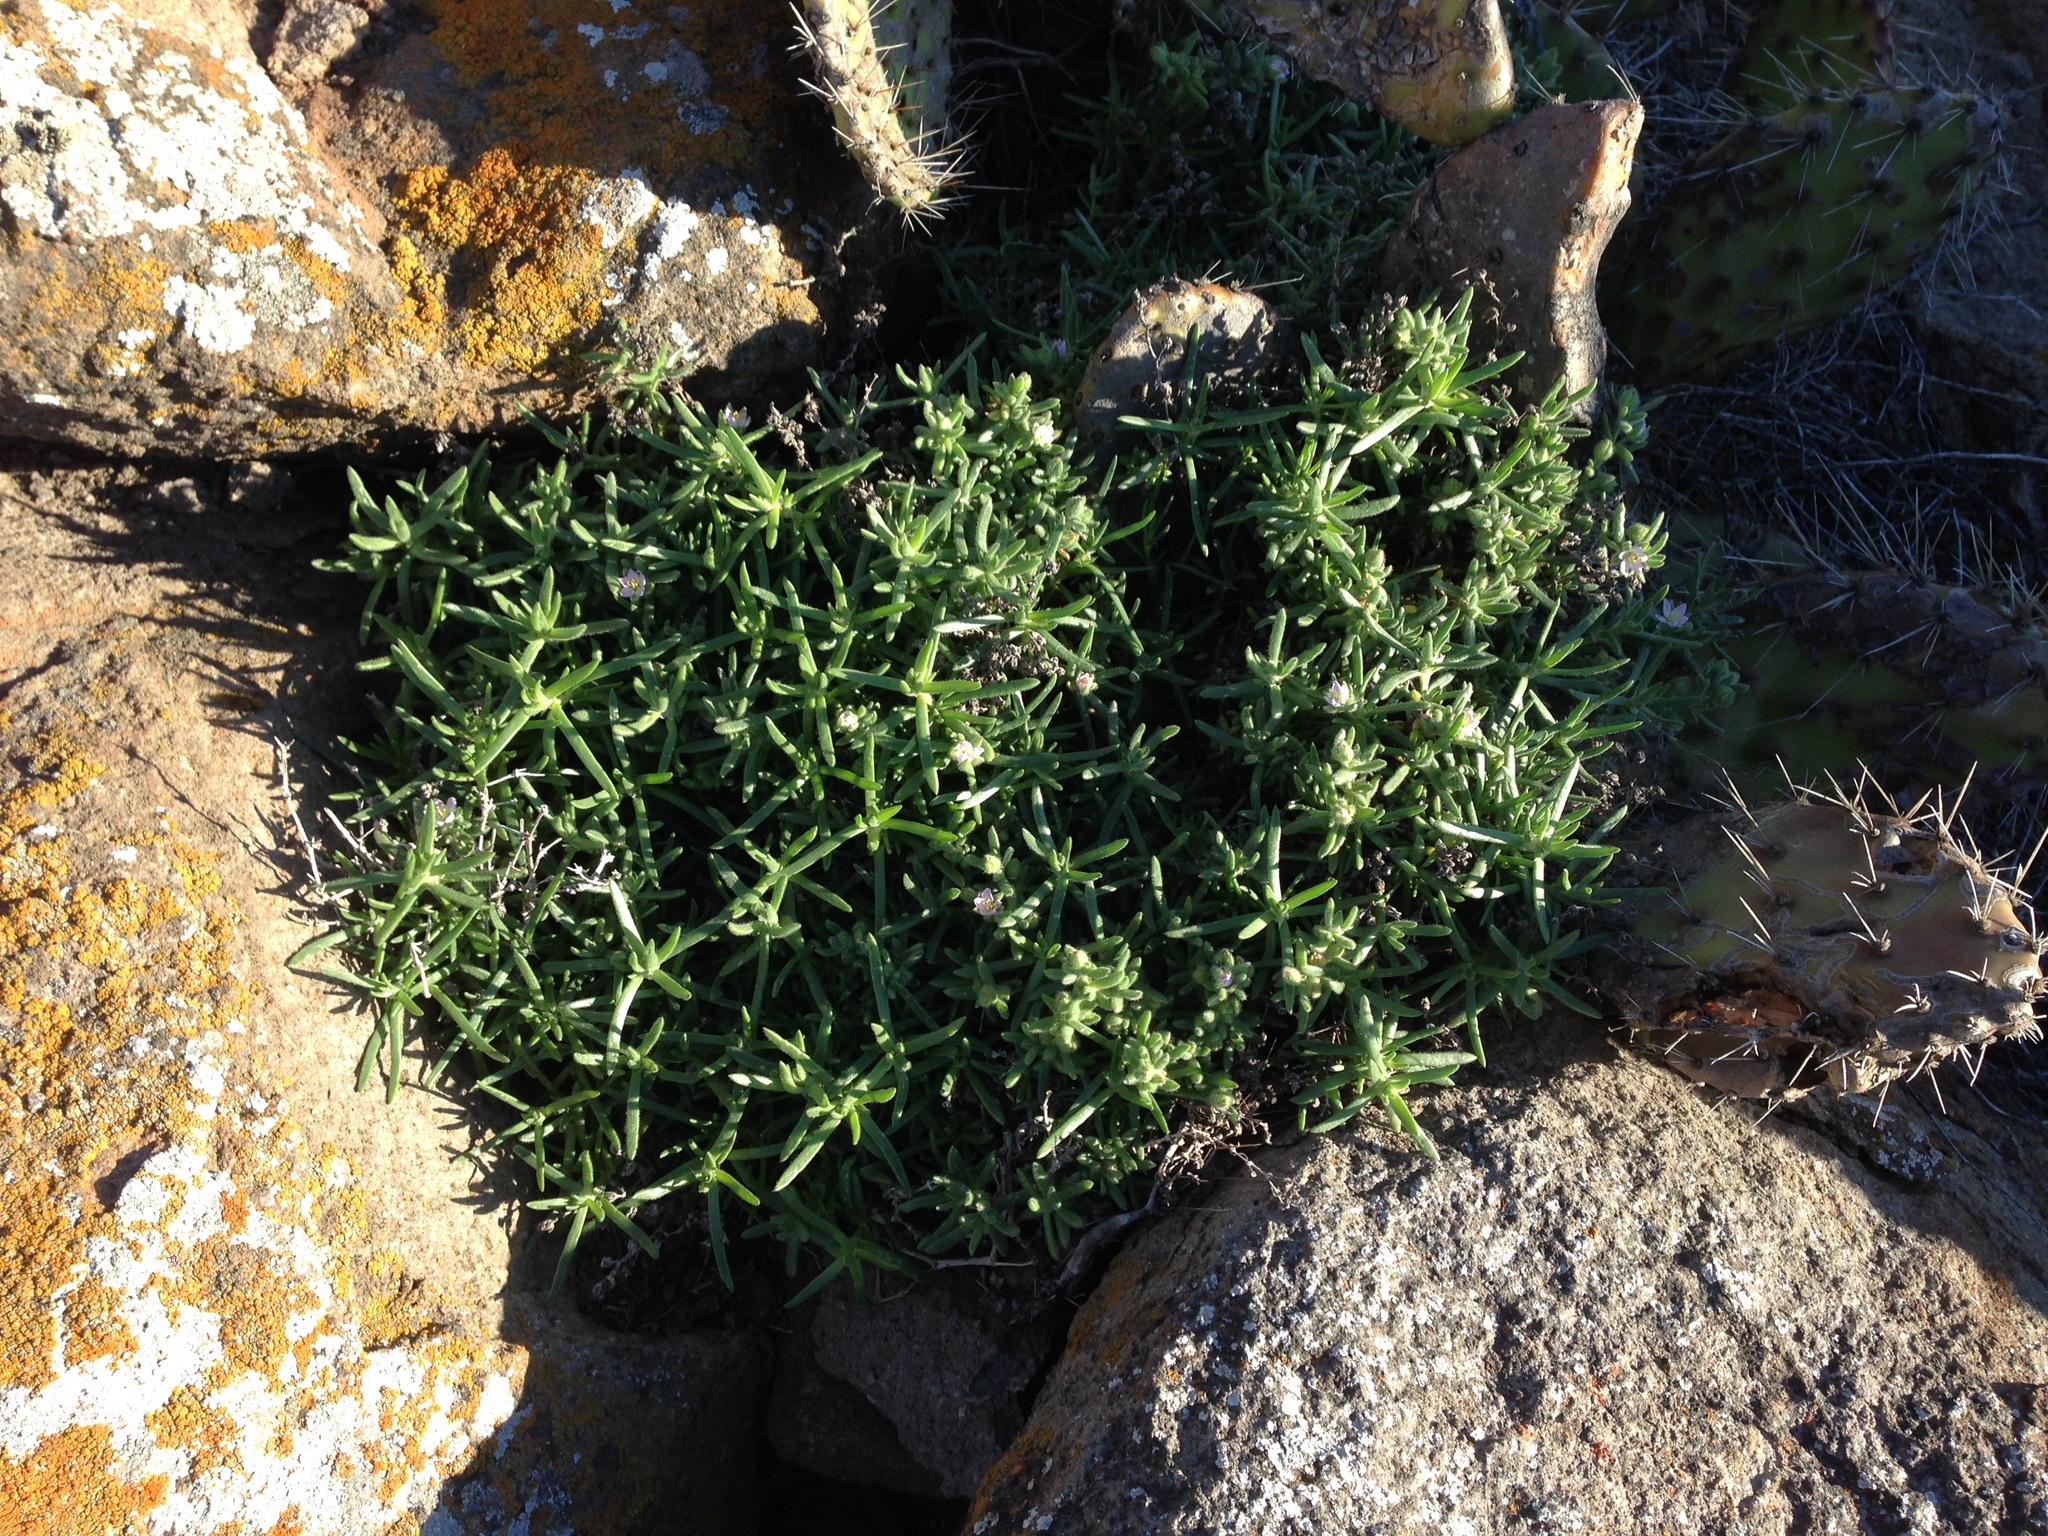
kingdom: Plantae
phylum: Tracheophyta
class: Magnoliopsida
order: Caryophyllales
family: Caryophyllaceae
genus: Spergularia
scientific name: Spergularia macrotheca
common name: Beach sand-spurrey
